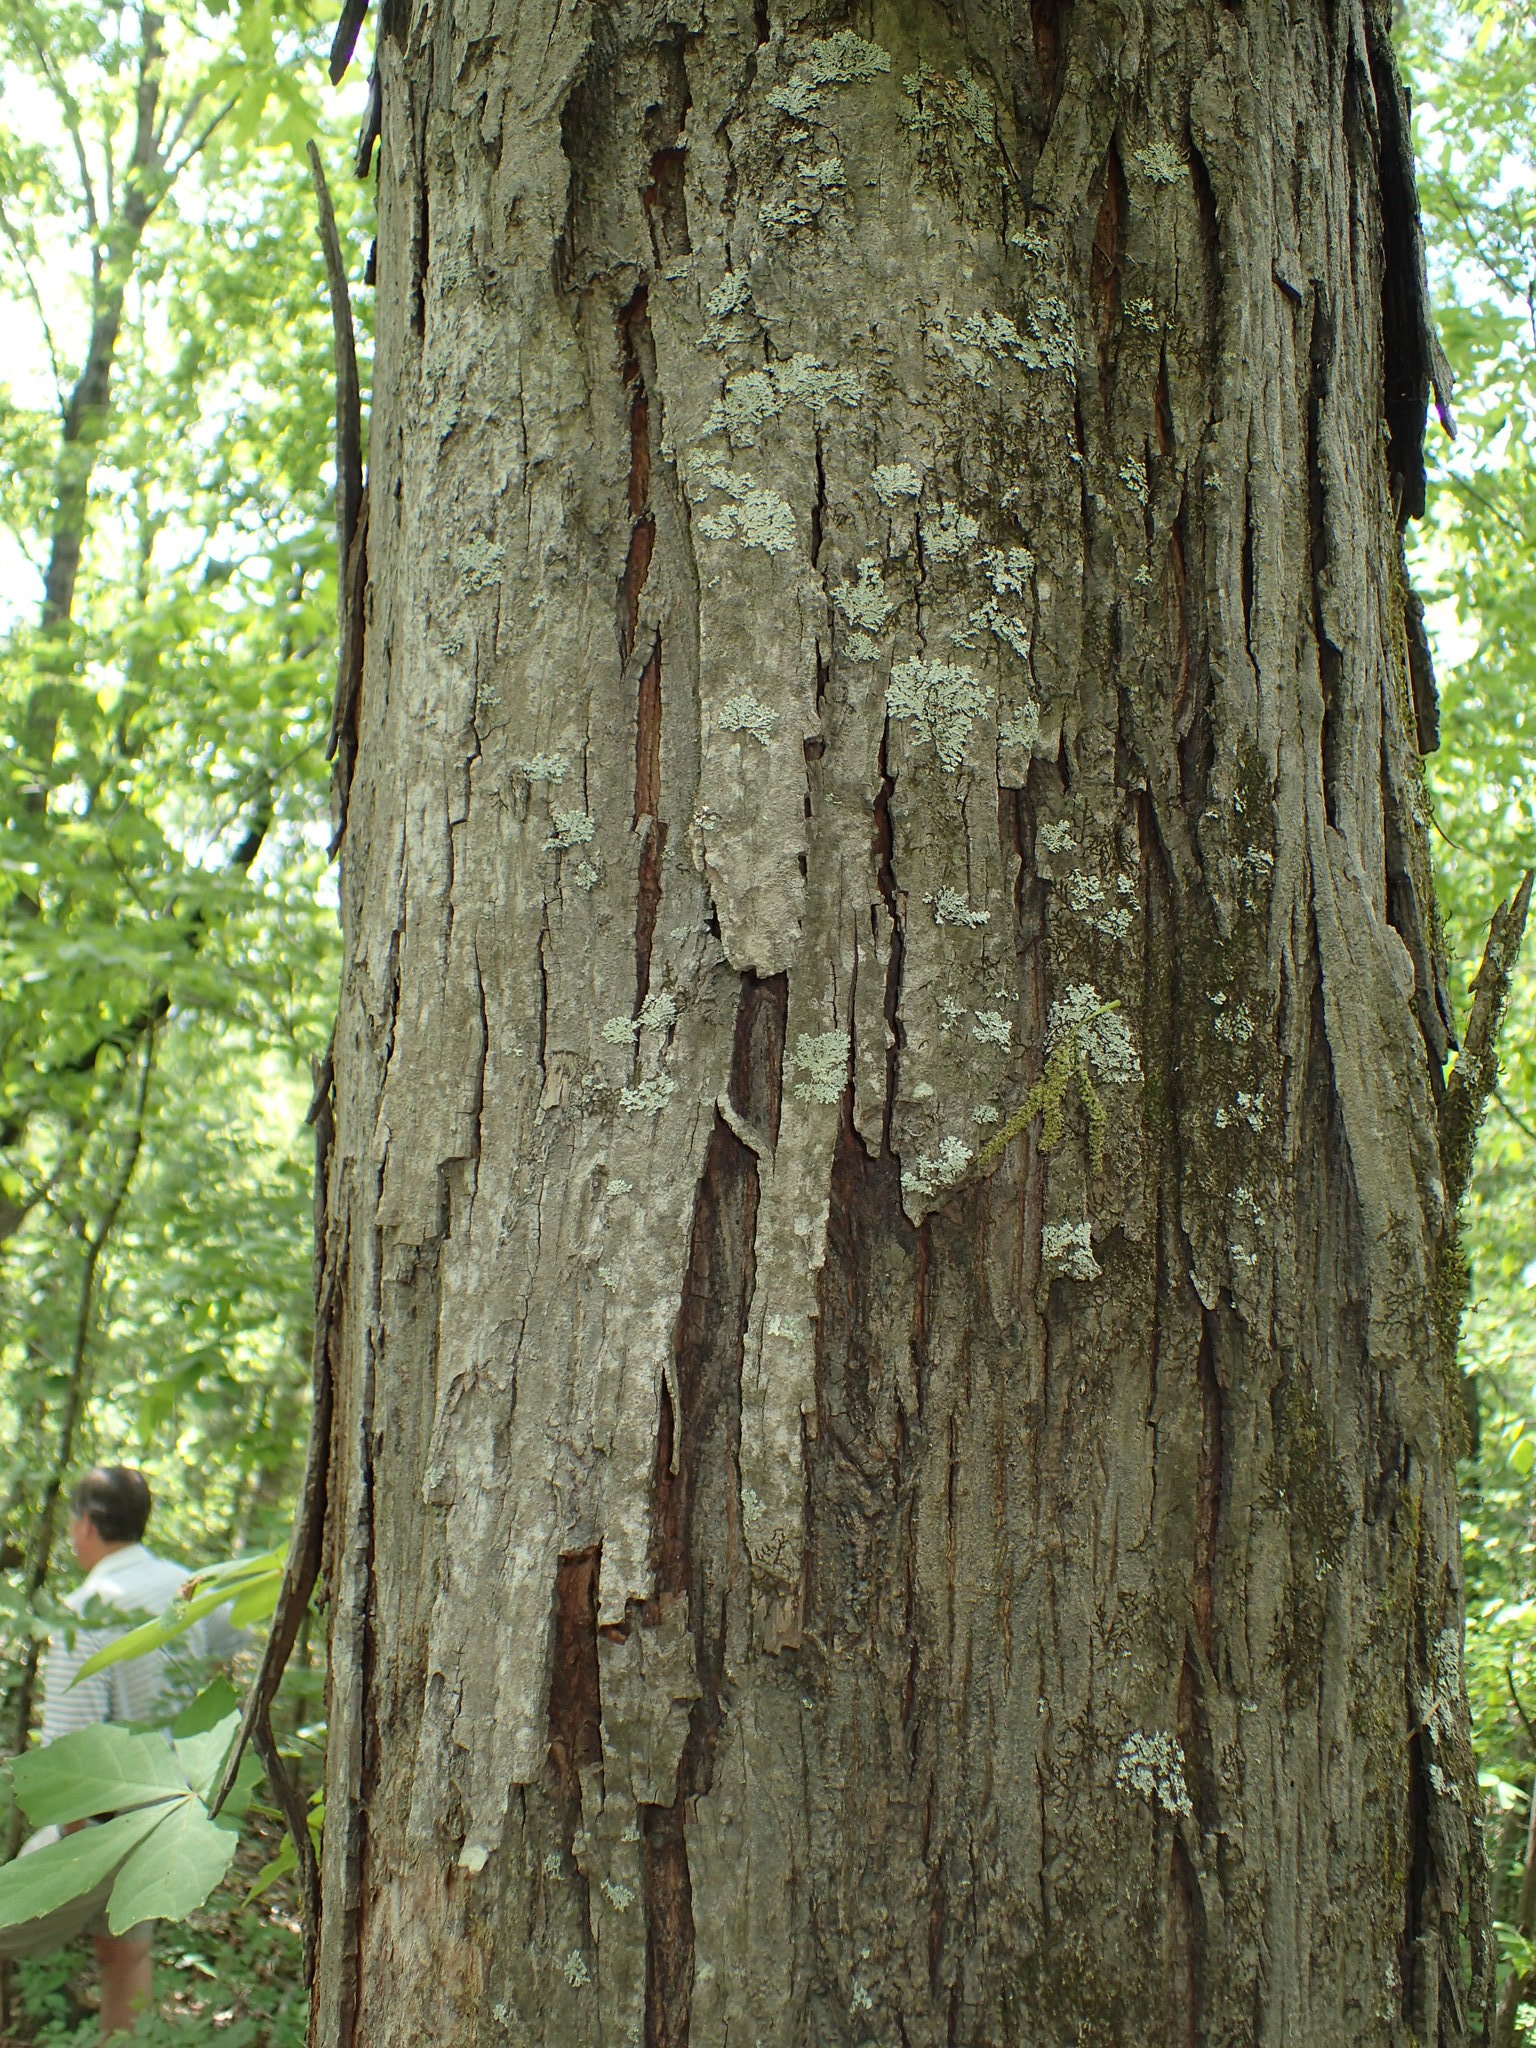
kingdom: Plantae
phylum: Tracheophyta
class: Magnoliopsida
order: Fagales
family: Juglandaceae
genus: Carya
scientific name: Carya ovata
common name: Shagbark hickory
